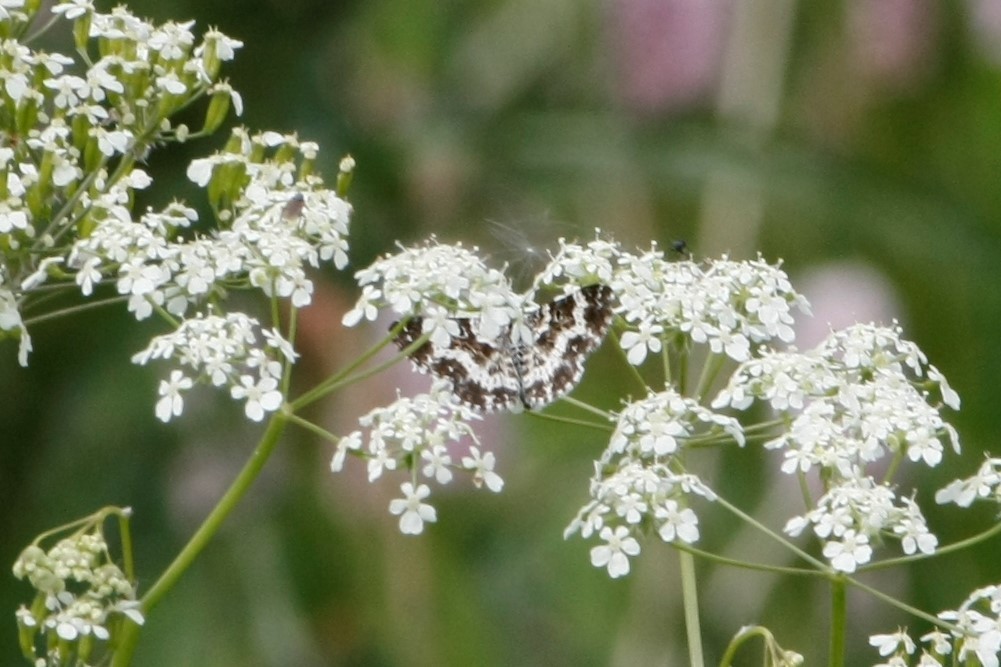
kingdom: Animalia
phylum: Arthropoda
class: Insecta
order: Lepidoptera
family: Geometridae
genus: Epirrhoe
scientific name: Epirrhoe tristata
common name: Small argent & sable
